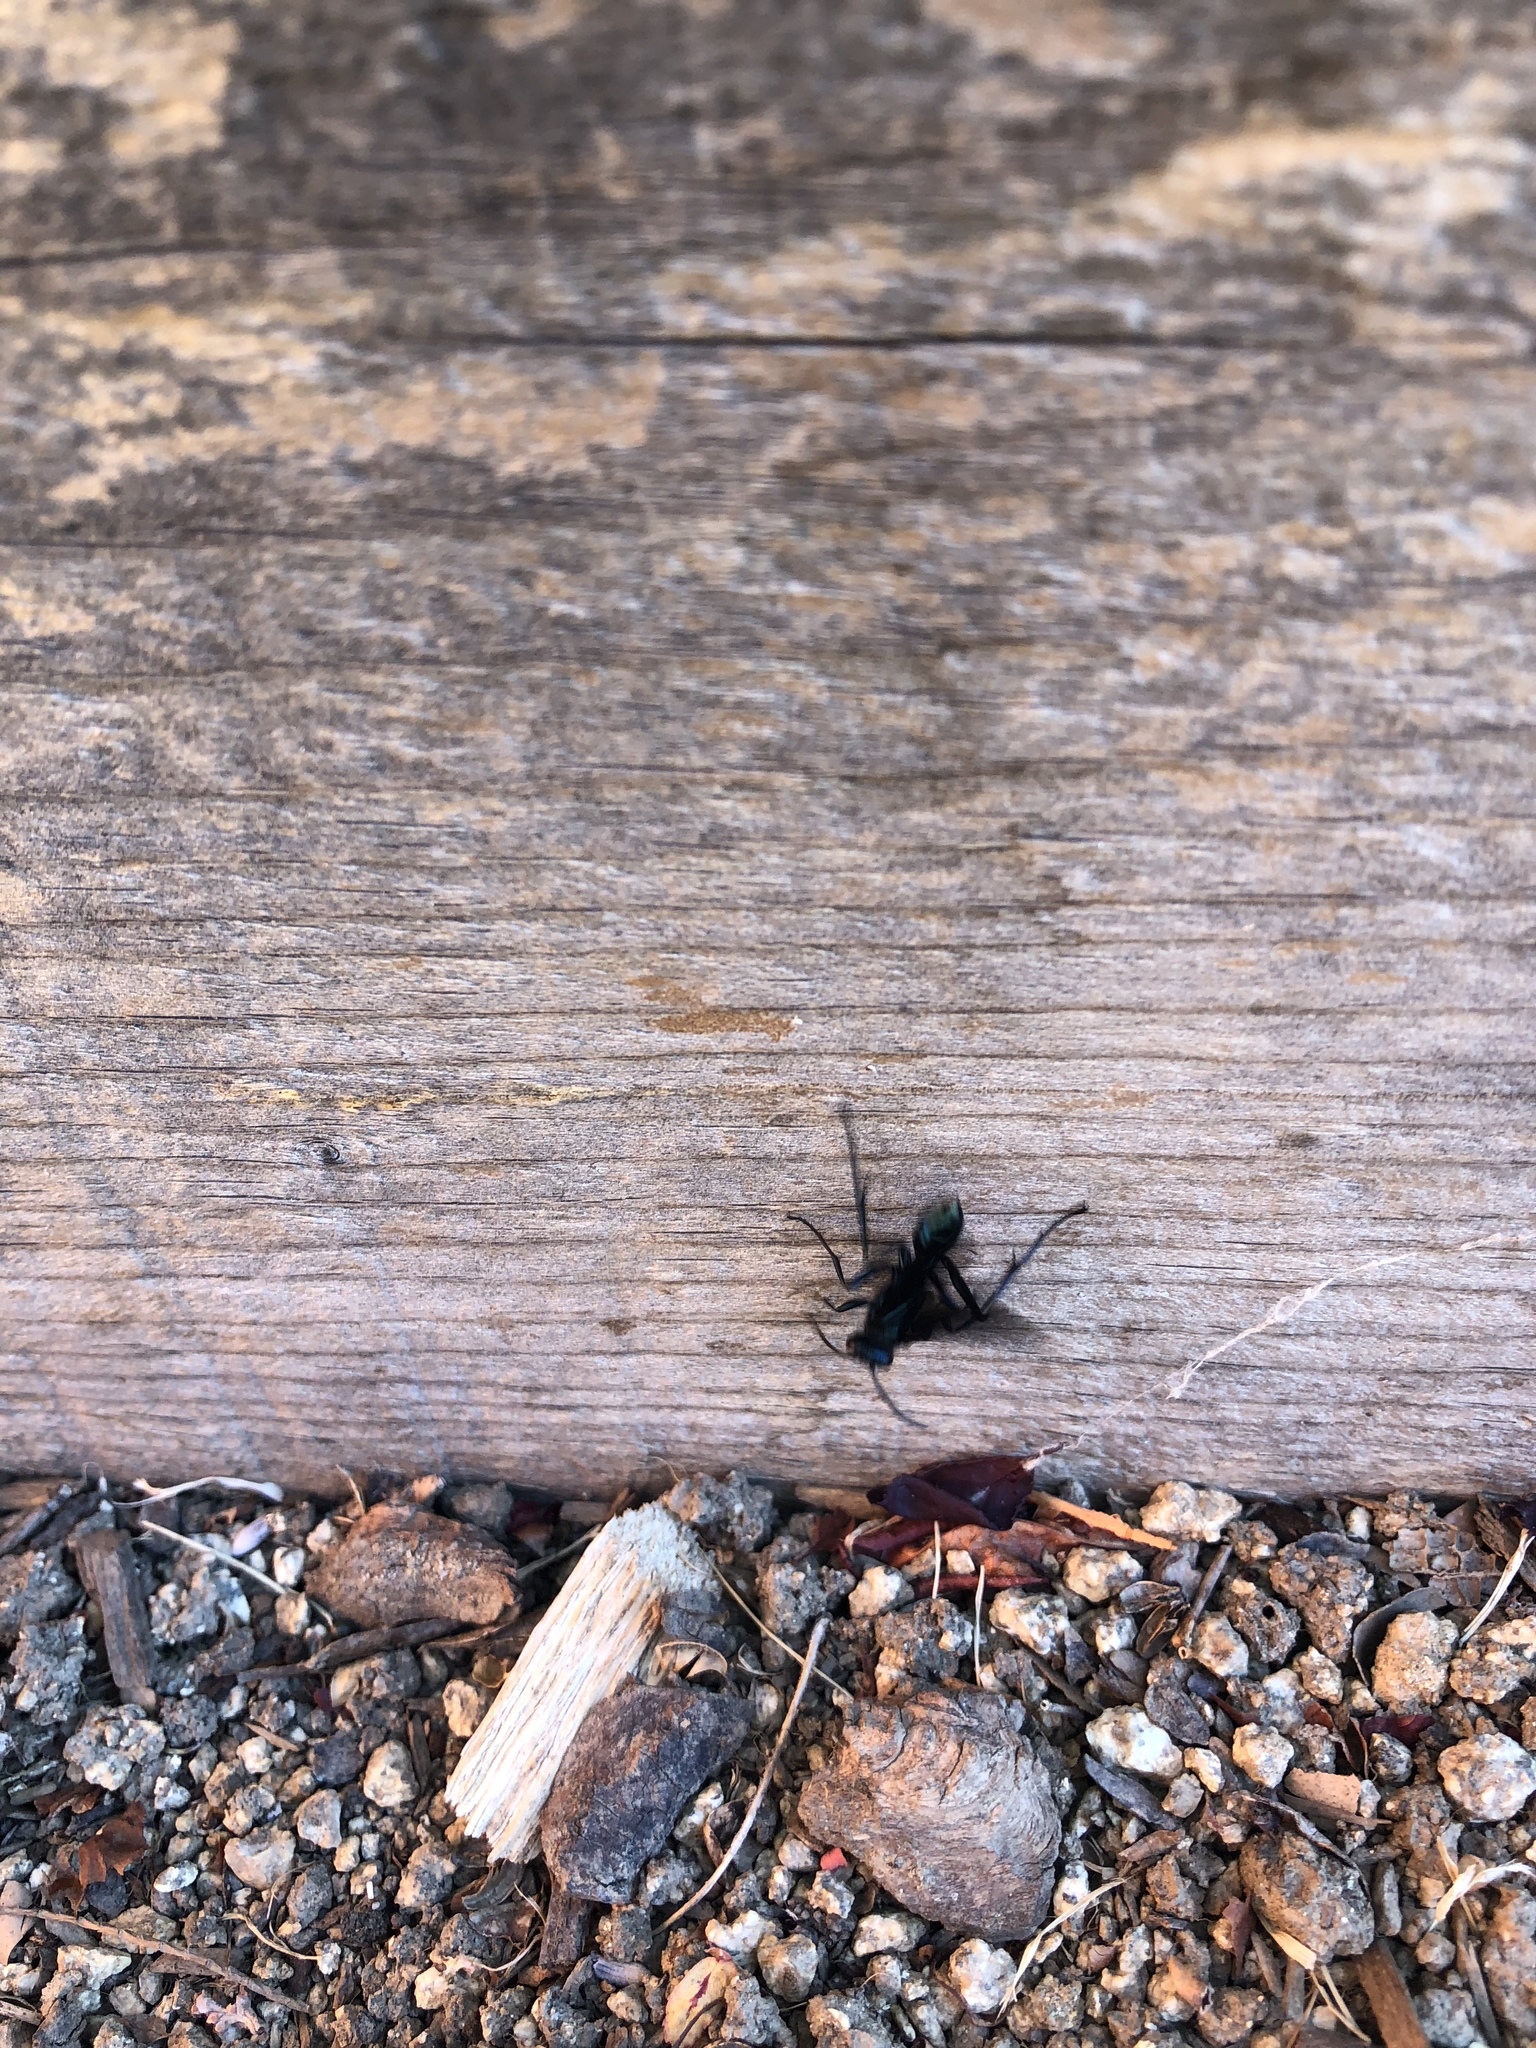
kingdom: Animalia
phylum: Arthropoda
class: Insecta
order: Hymenoptera
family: Sphecidae
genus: Chalybion
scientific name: Chalybion californicum
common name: Mud dauber
